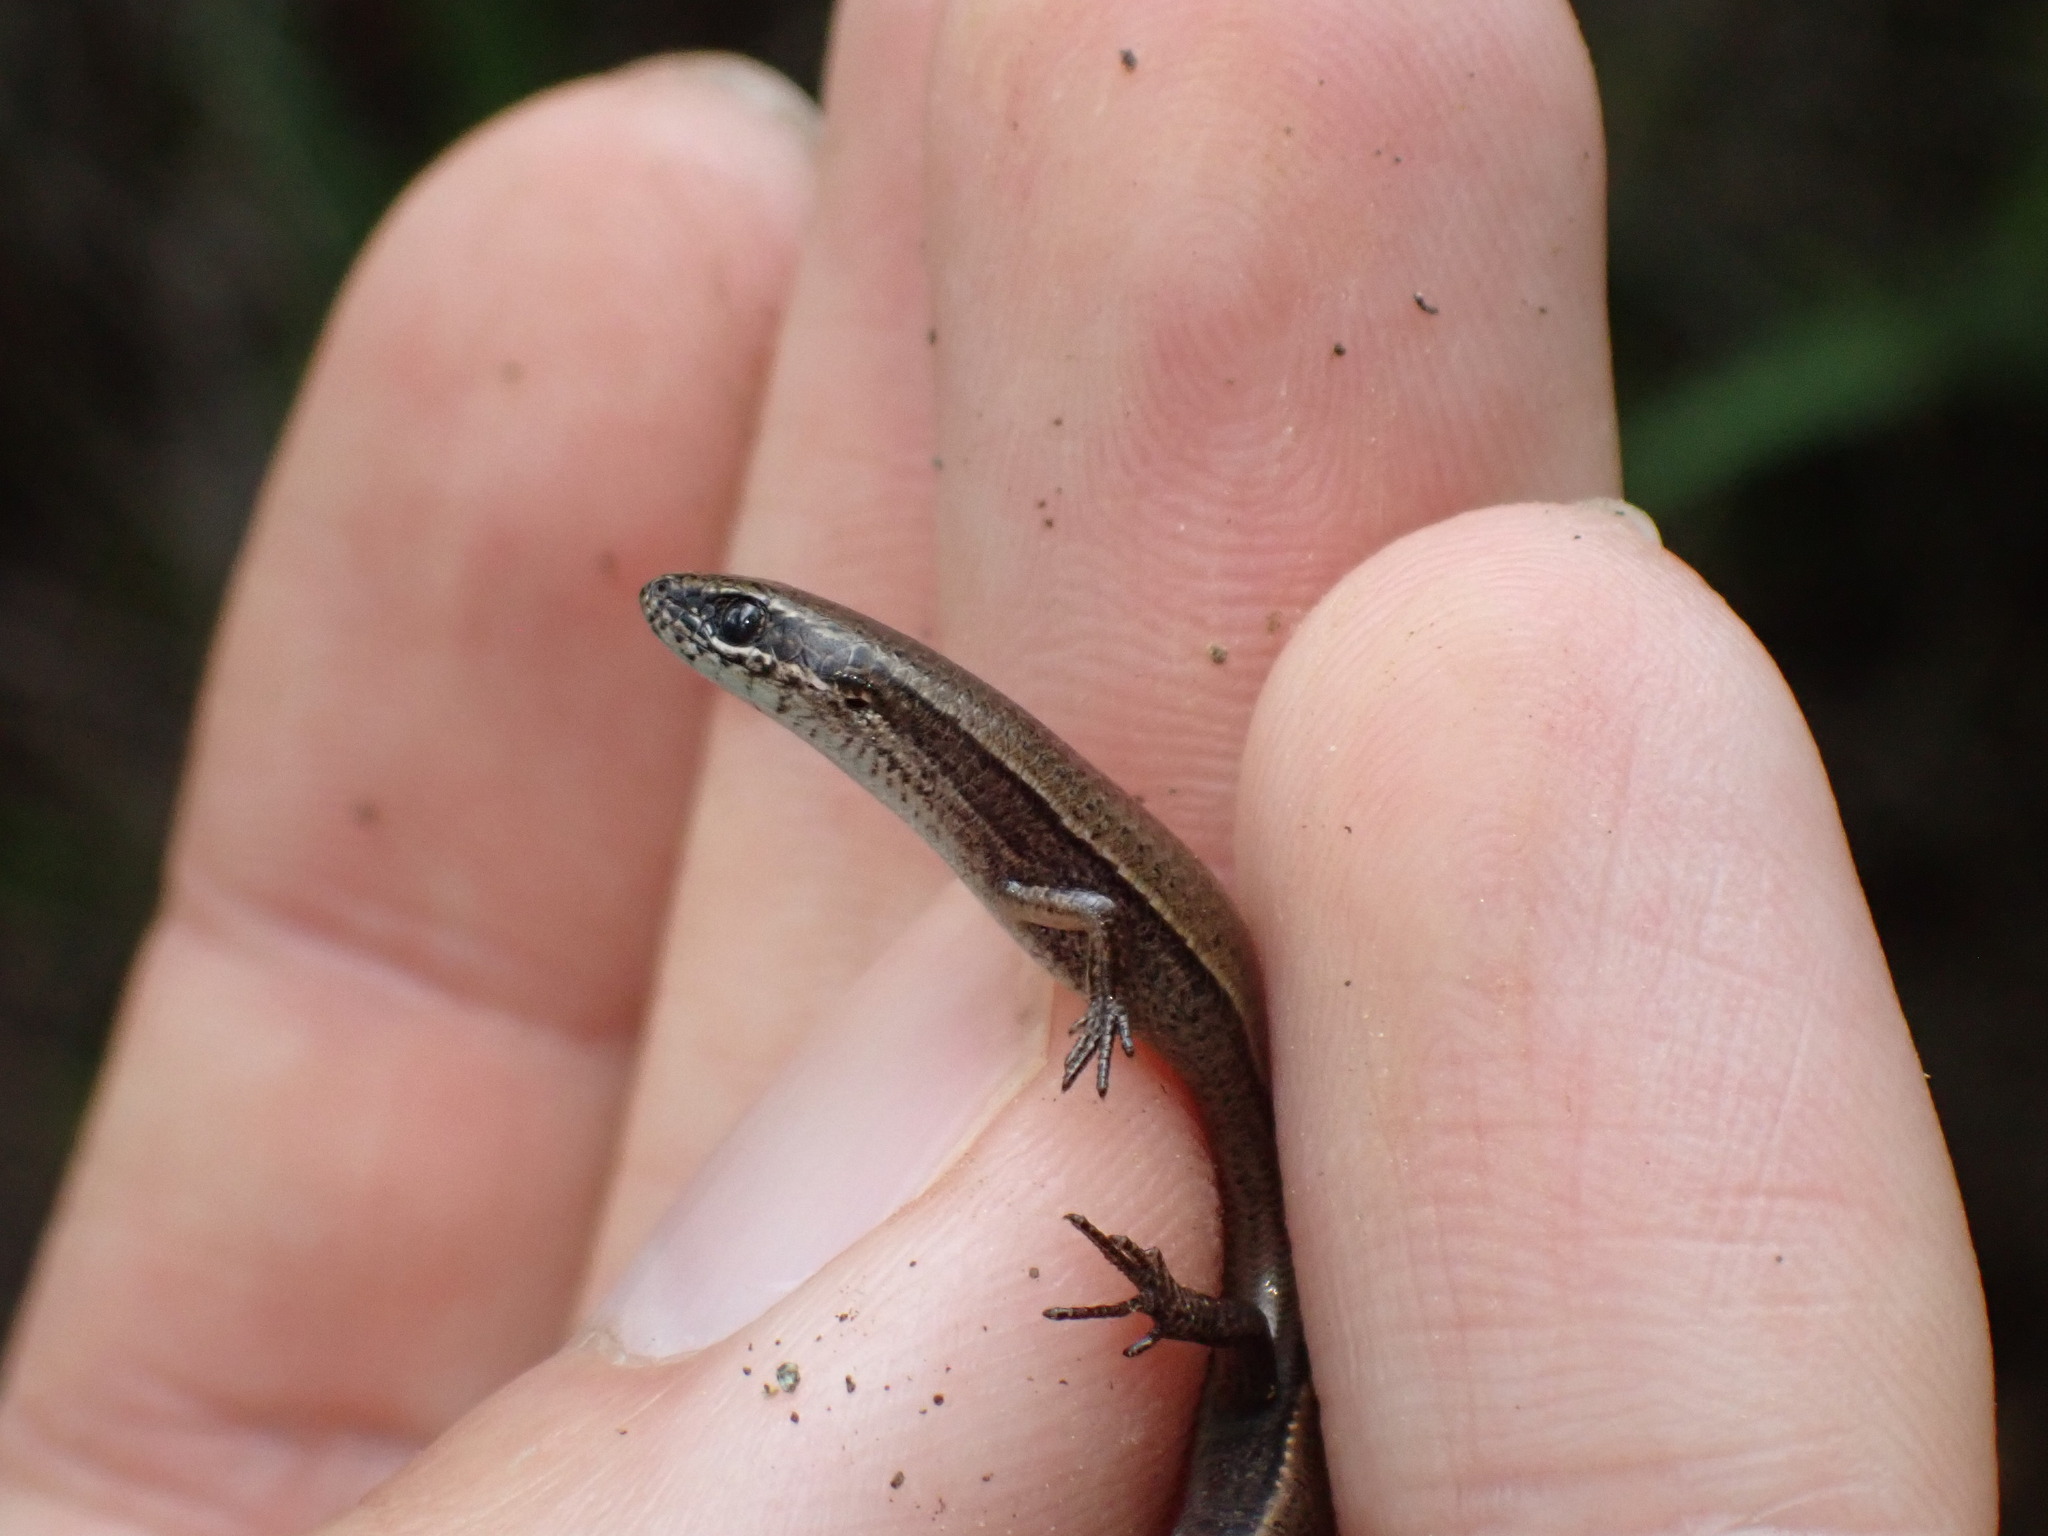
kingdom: Animalia
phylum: Chordata
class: Squamata
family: Scincidae
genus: Ablepharus
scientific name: Ablepharus anatolicus
